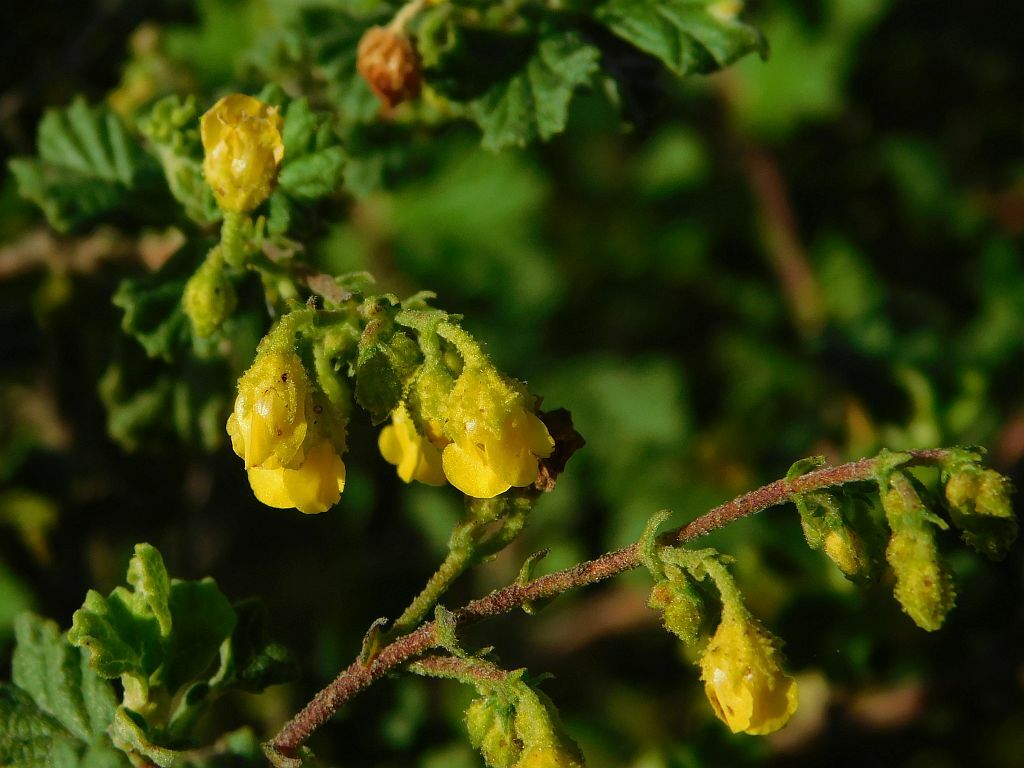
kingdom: Plantae
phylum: Tracheophyta
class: Magnoliopsida
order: Malvales
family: Malvaceae
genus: Hermannia
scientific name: Hermannia alnifolia
